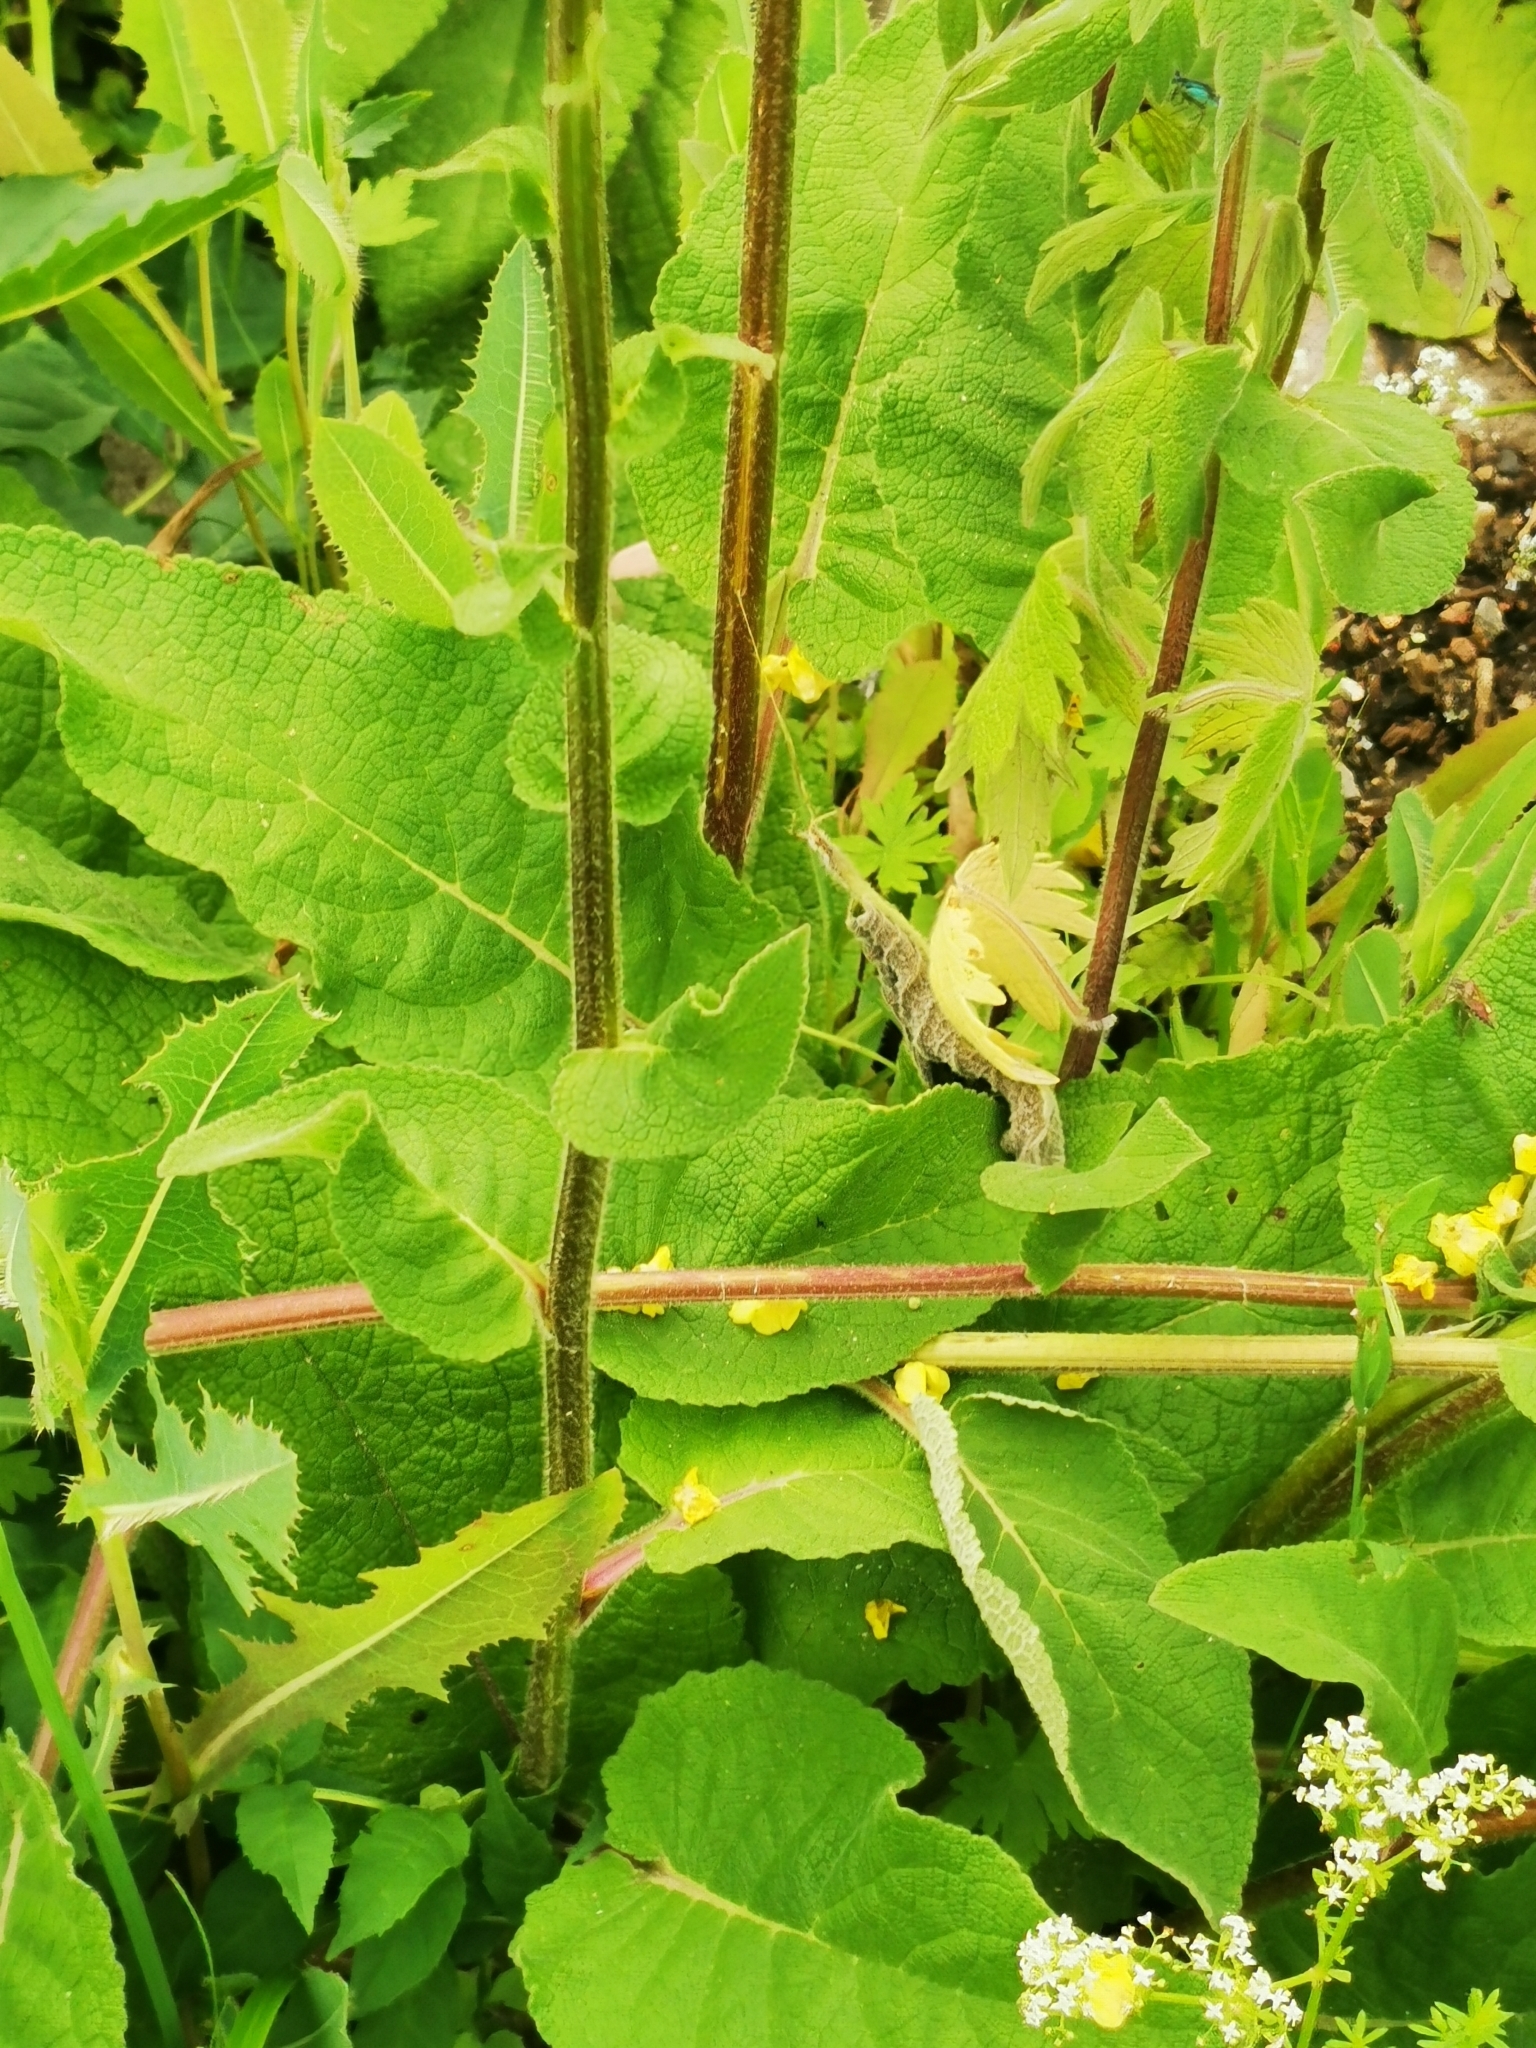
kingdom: Plantae
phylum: Tracheophyta
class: Magnoliopsida
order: Lamiales
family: Scrophulariaceae
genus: Verbascum
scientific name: Verbascum nigrum
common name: Dark mullein
